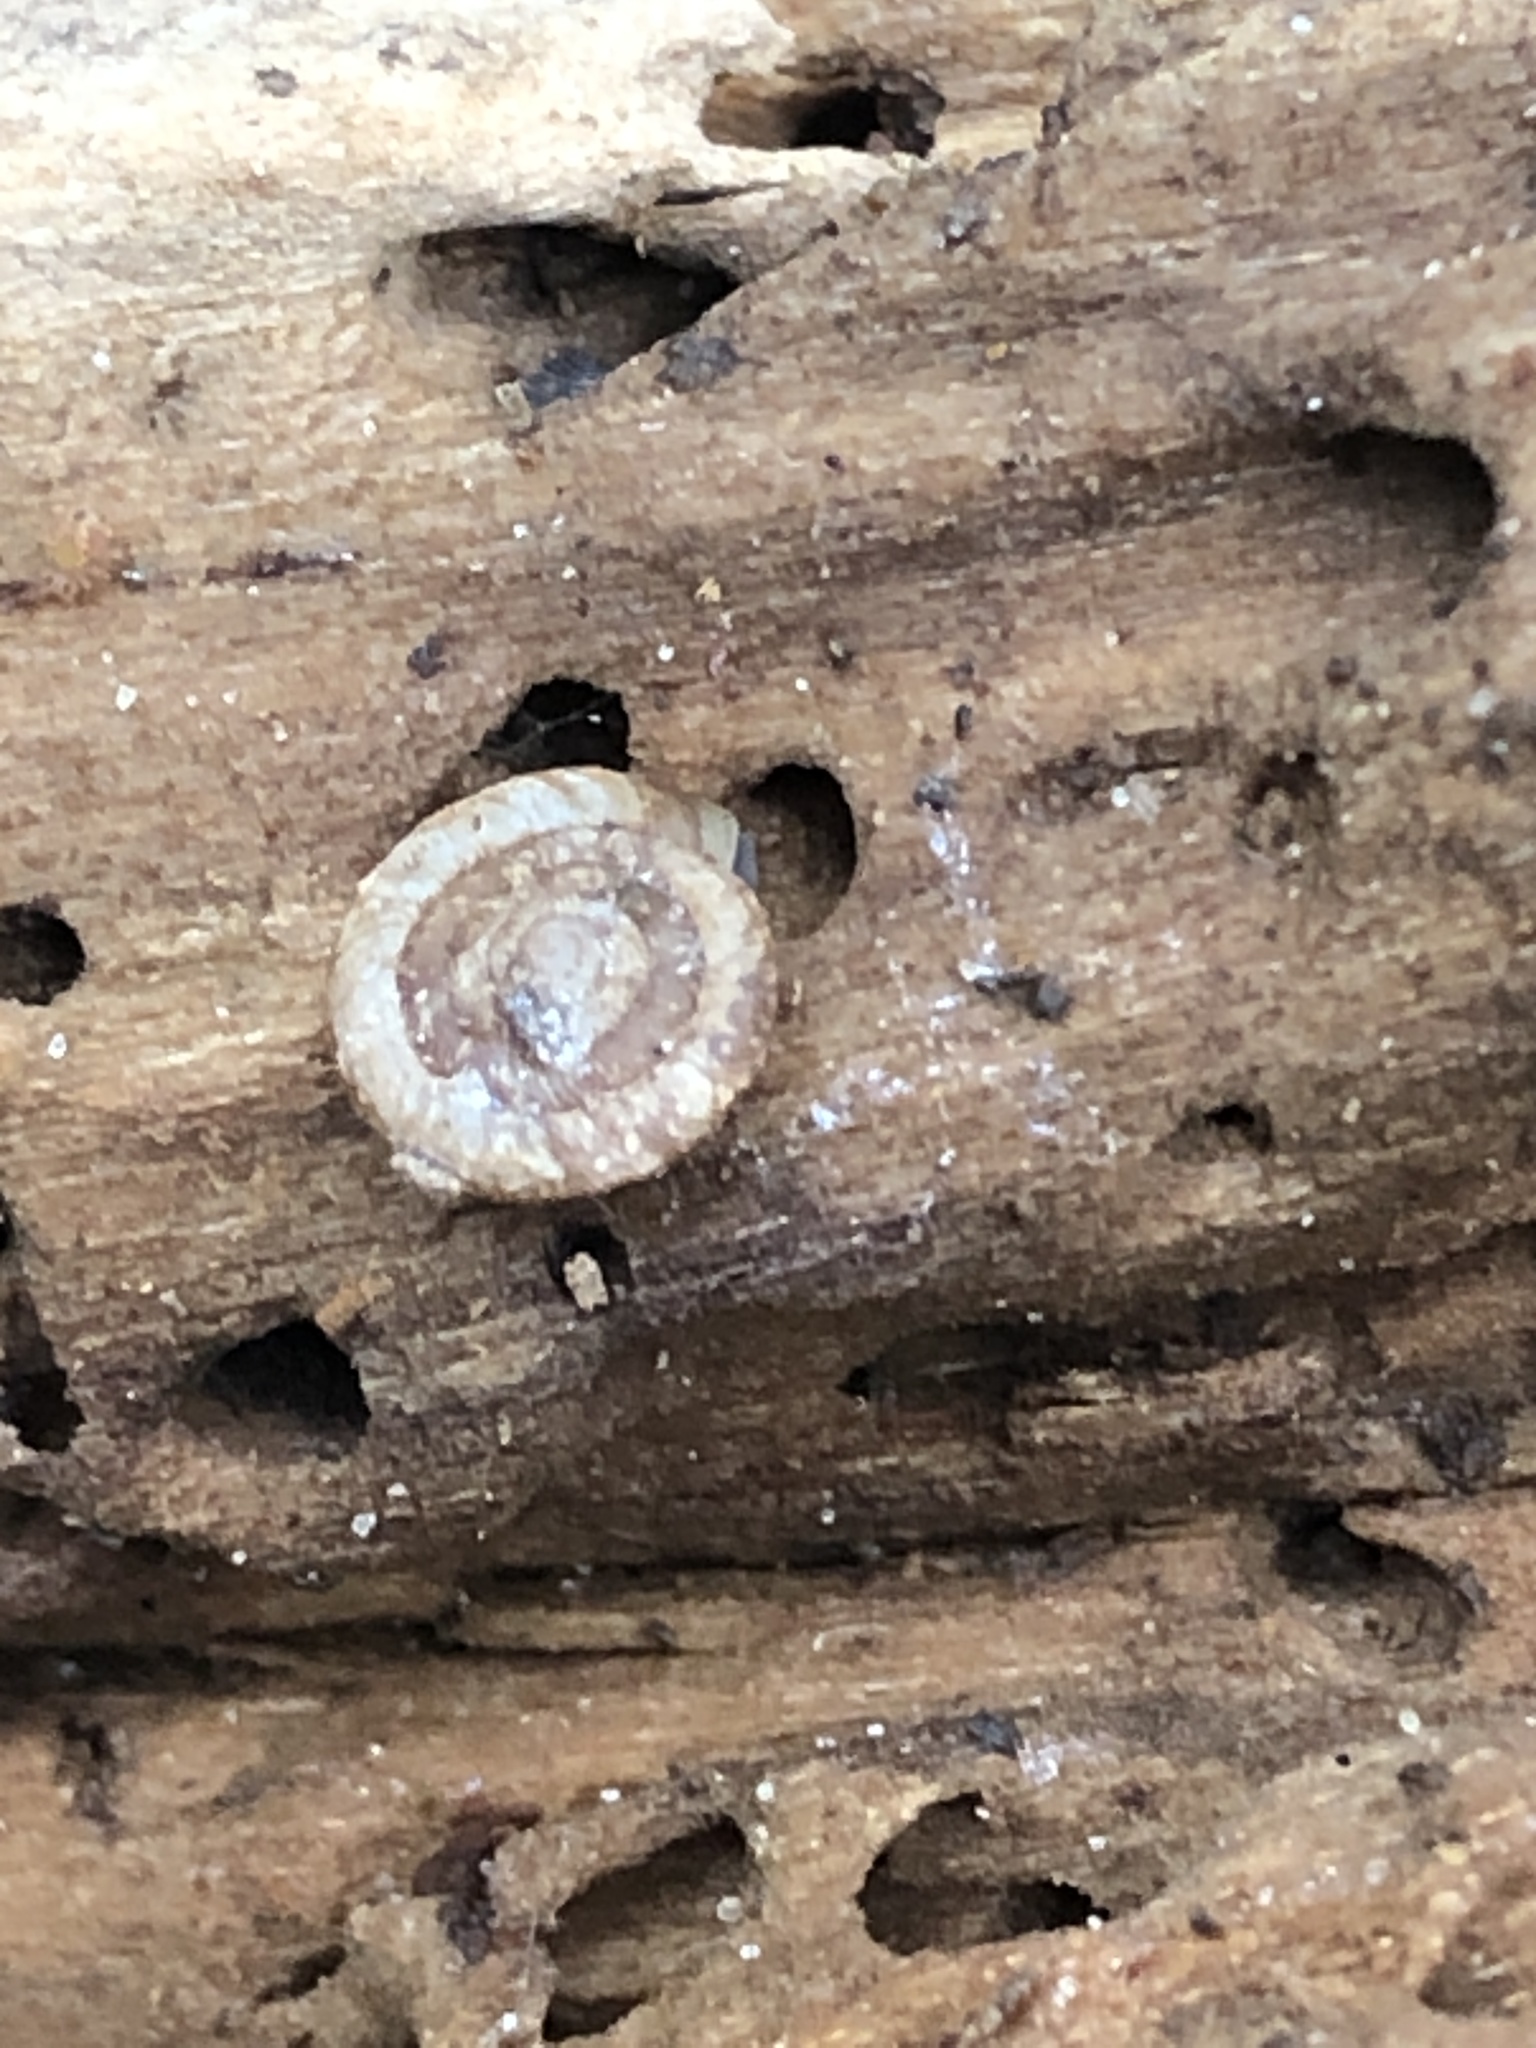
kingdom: Animalia
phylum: Mollusca
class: Gastropoda
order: Stylommatophora
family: Discidae
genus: Discus
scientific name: Discus rotundatus
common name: Rounded snail
